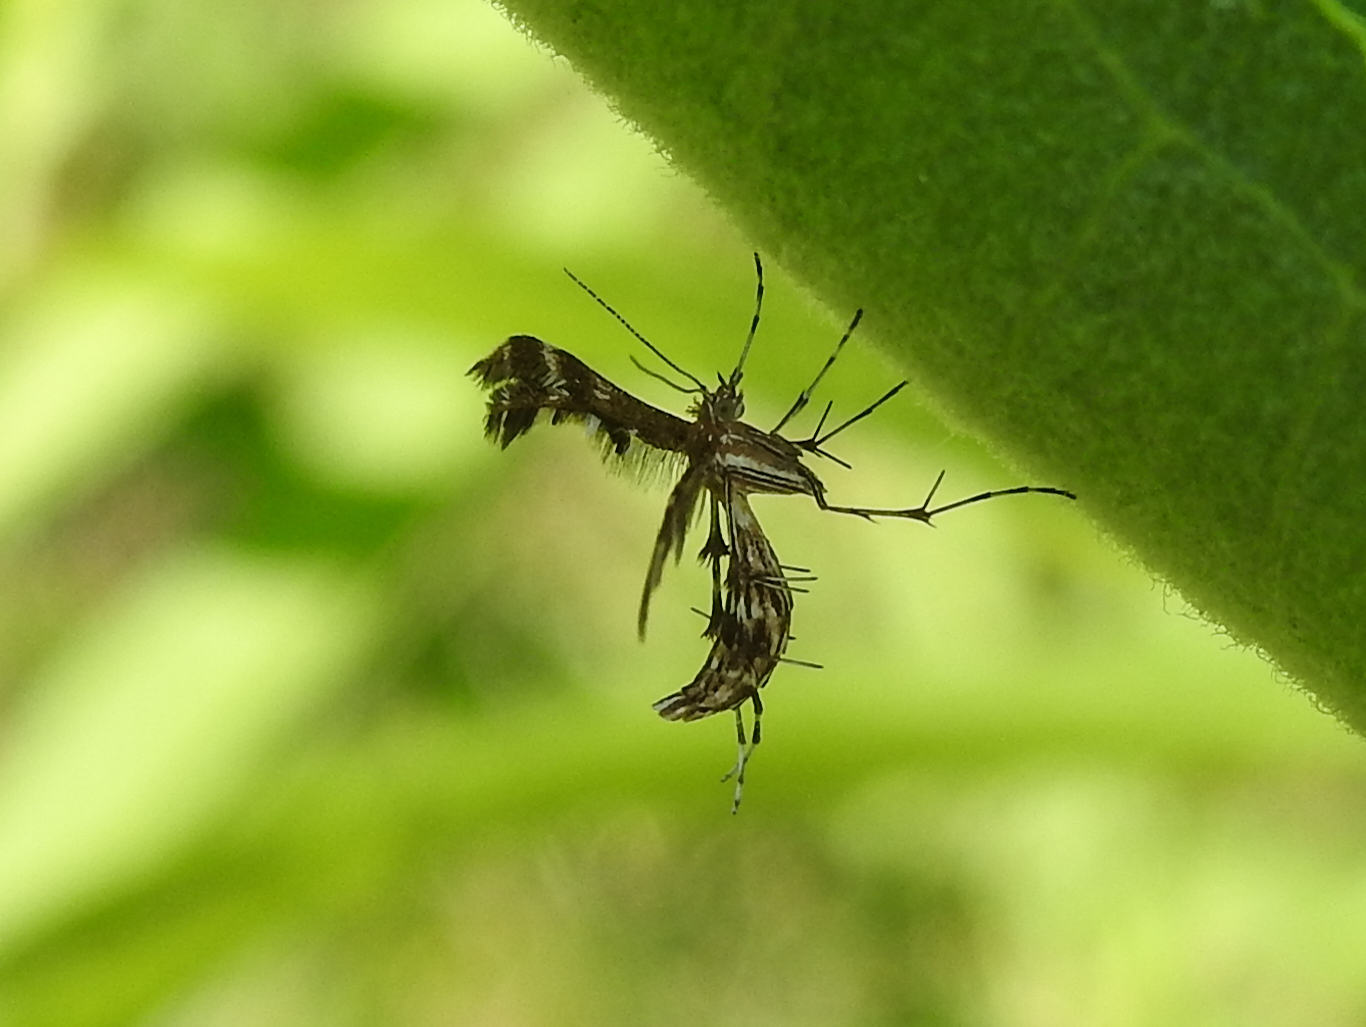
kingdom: Animalia
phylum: Arthropoda
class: Insecta
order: Lepidoptera
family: Pterophoridae
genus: Dejongia
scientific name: Dejongia lobidactylus
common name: Lobed plume moth
